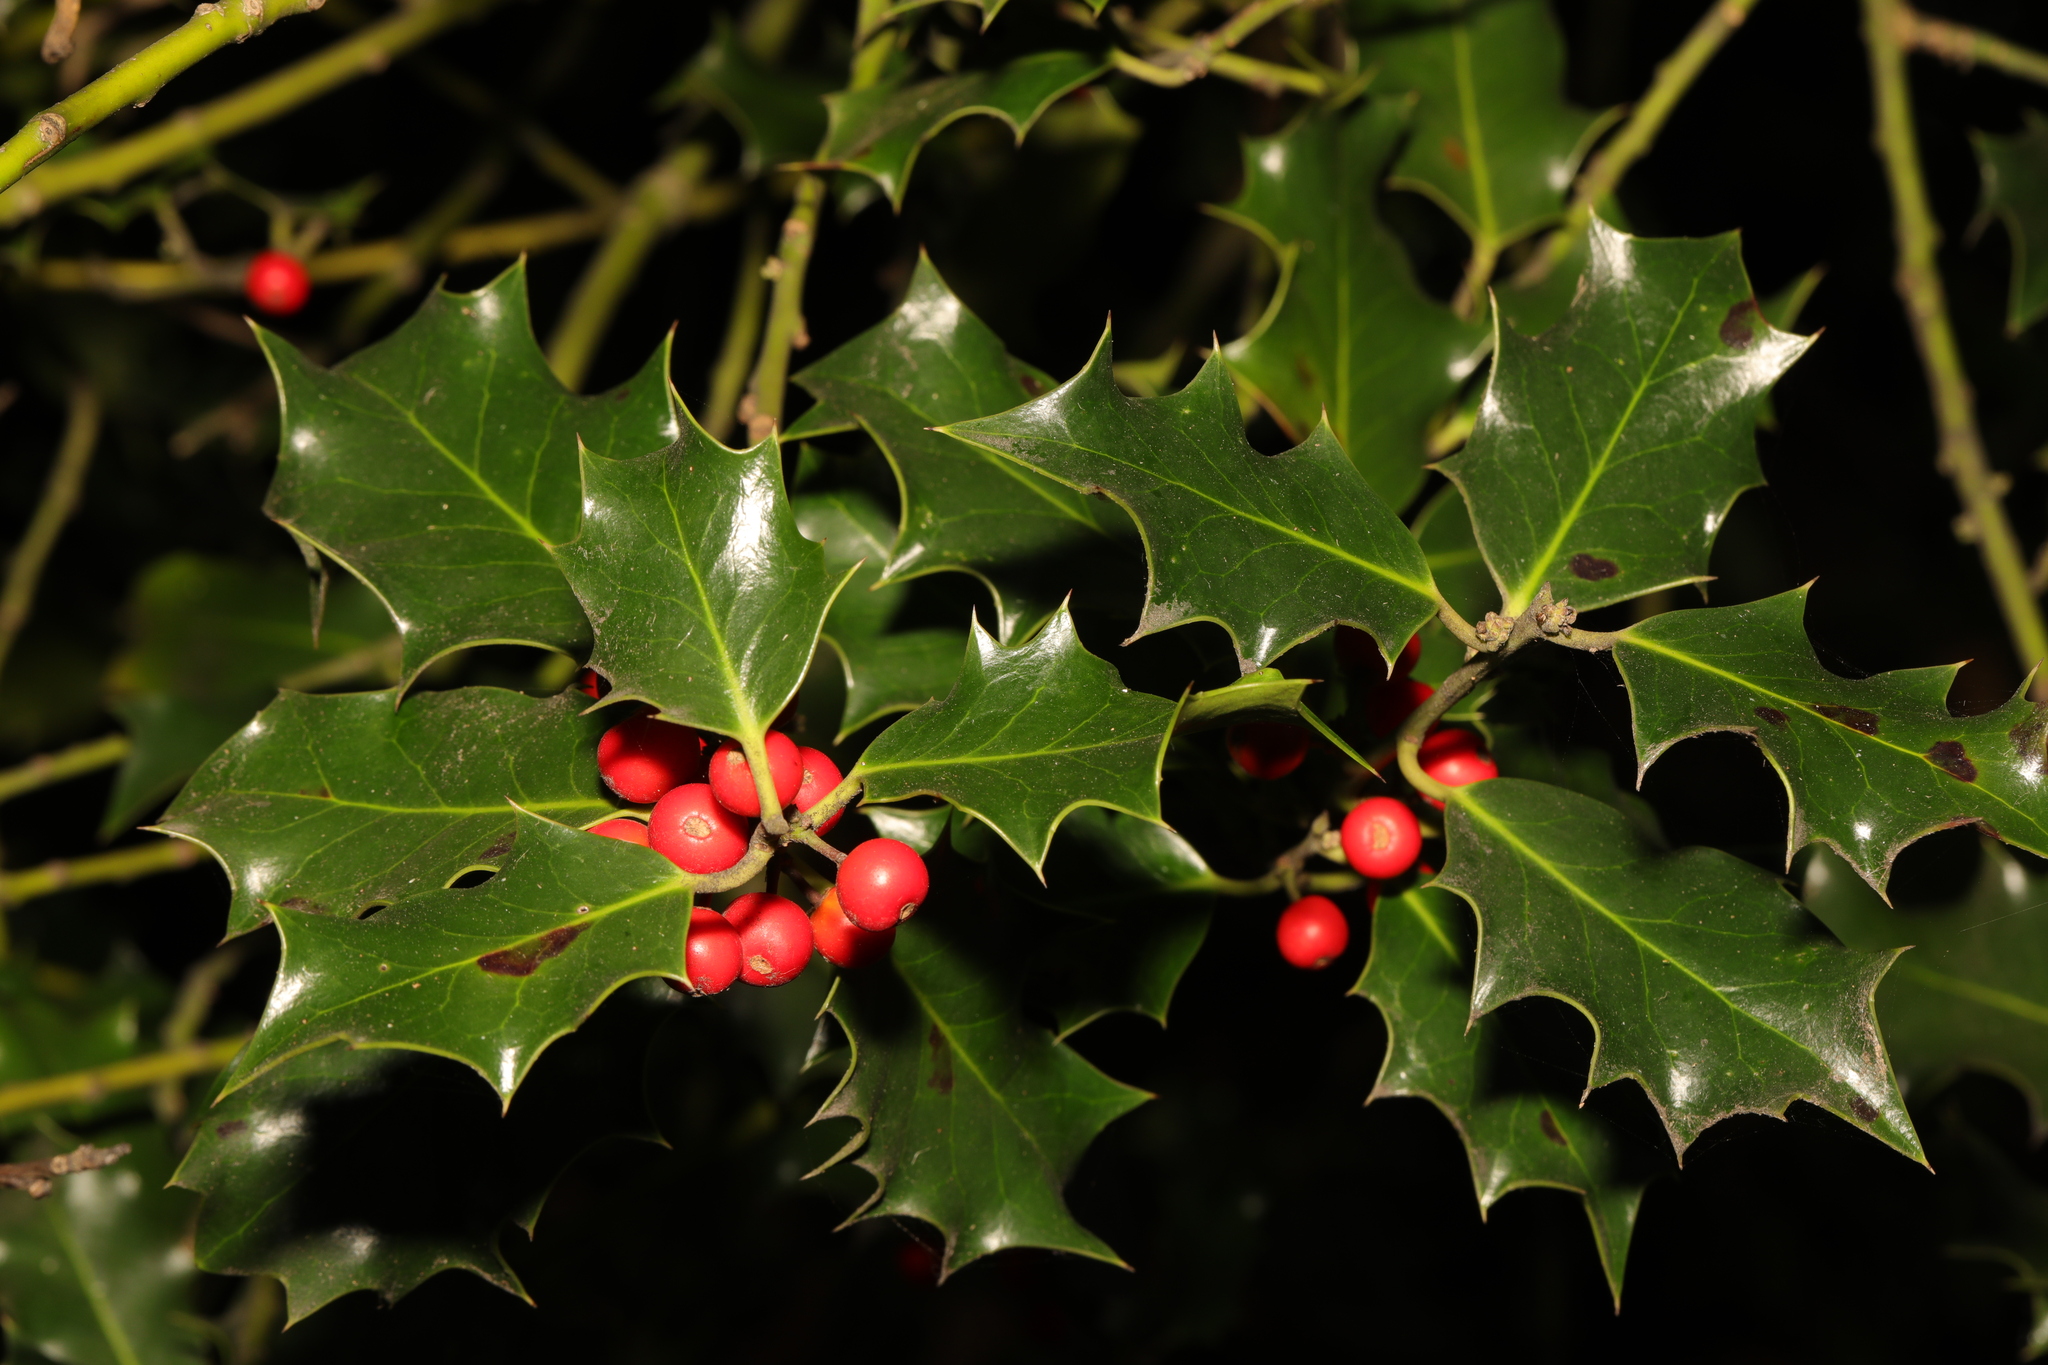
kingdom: Plantae
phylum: Tracheophyta
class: Magnoliopsida
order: Aquifoliales
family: Aquifoliaceae
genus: Ilex
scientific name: Ilex aquifolium
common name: English holly
